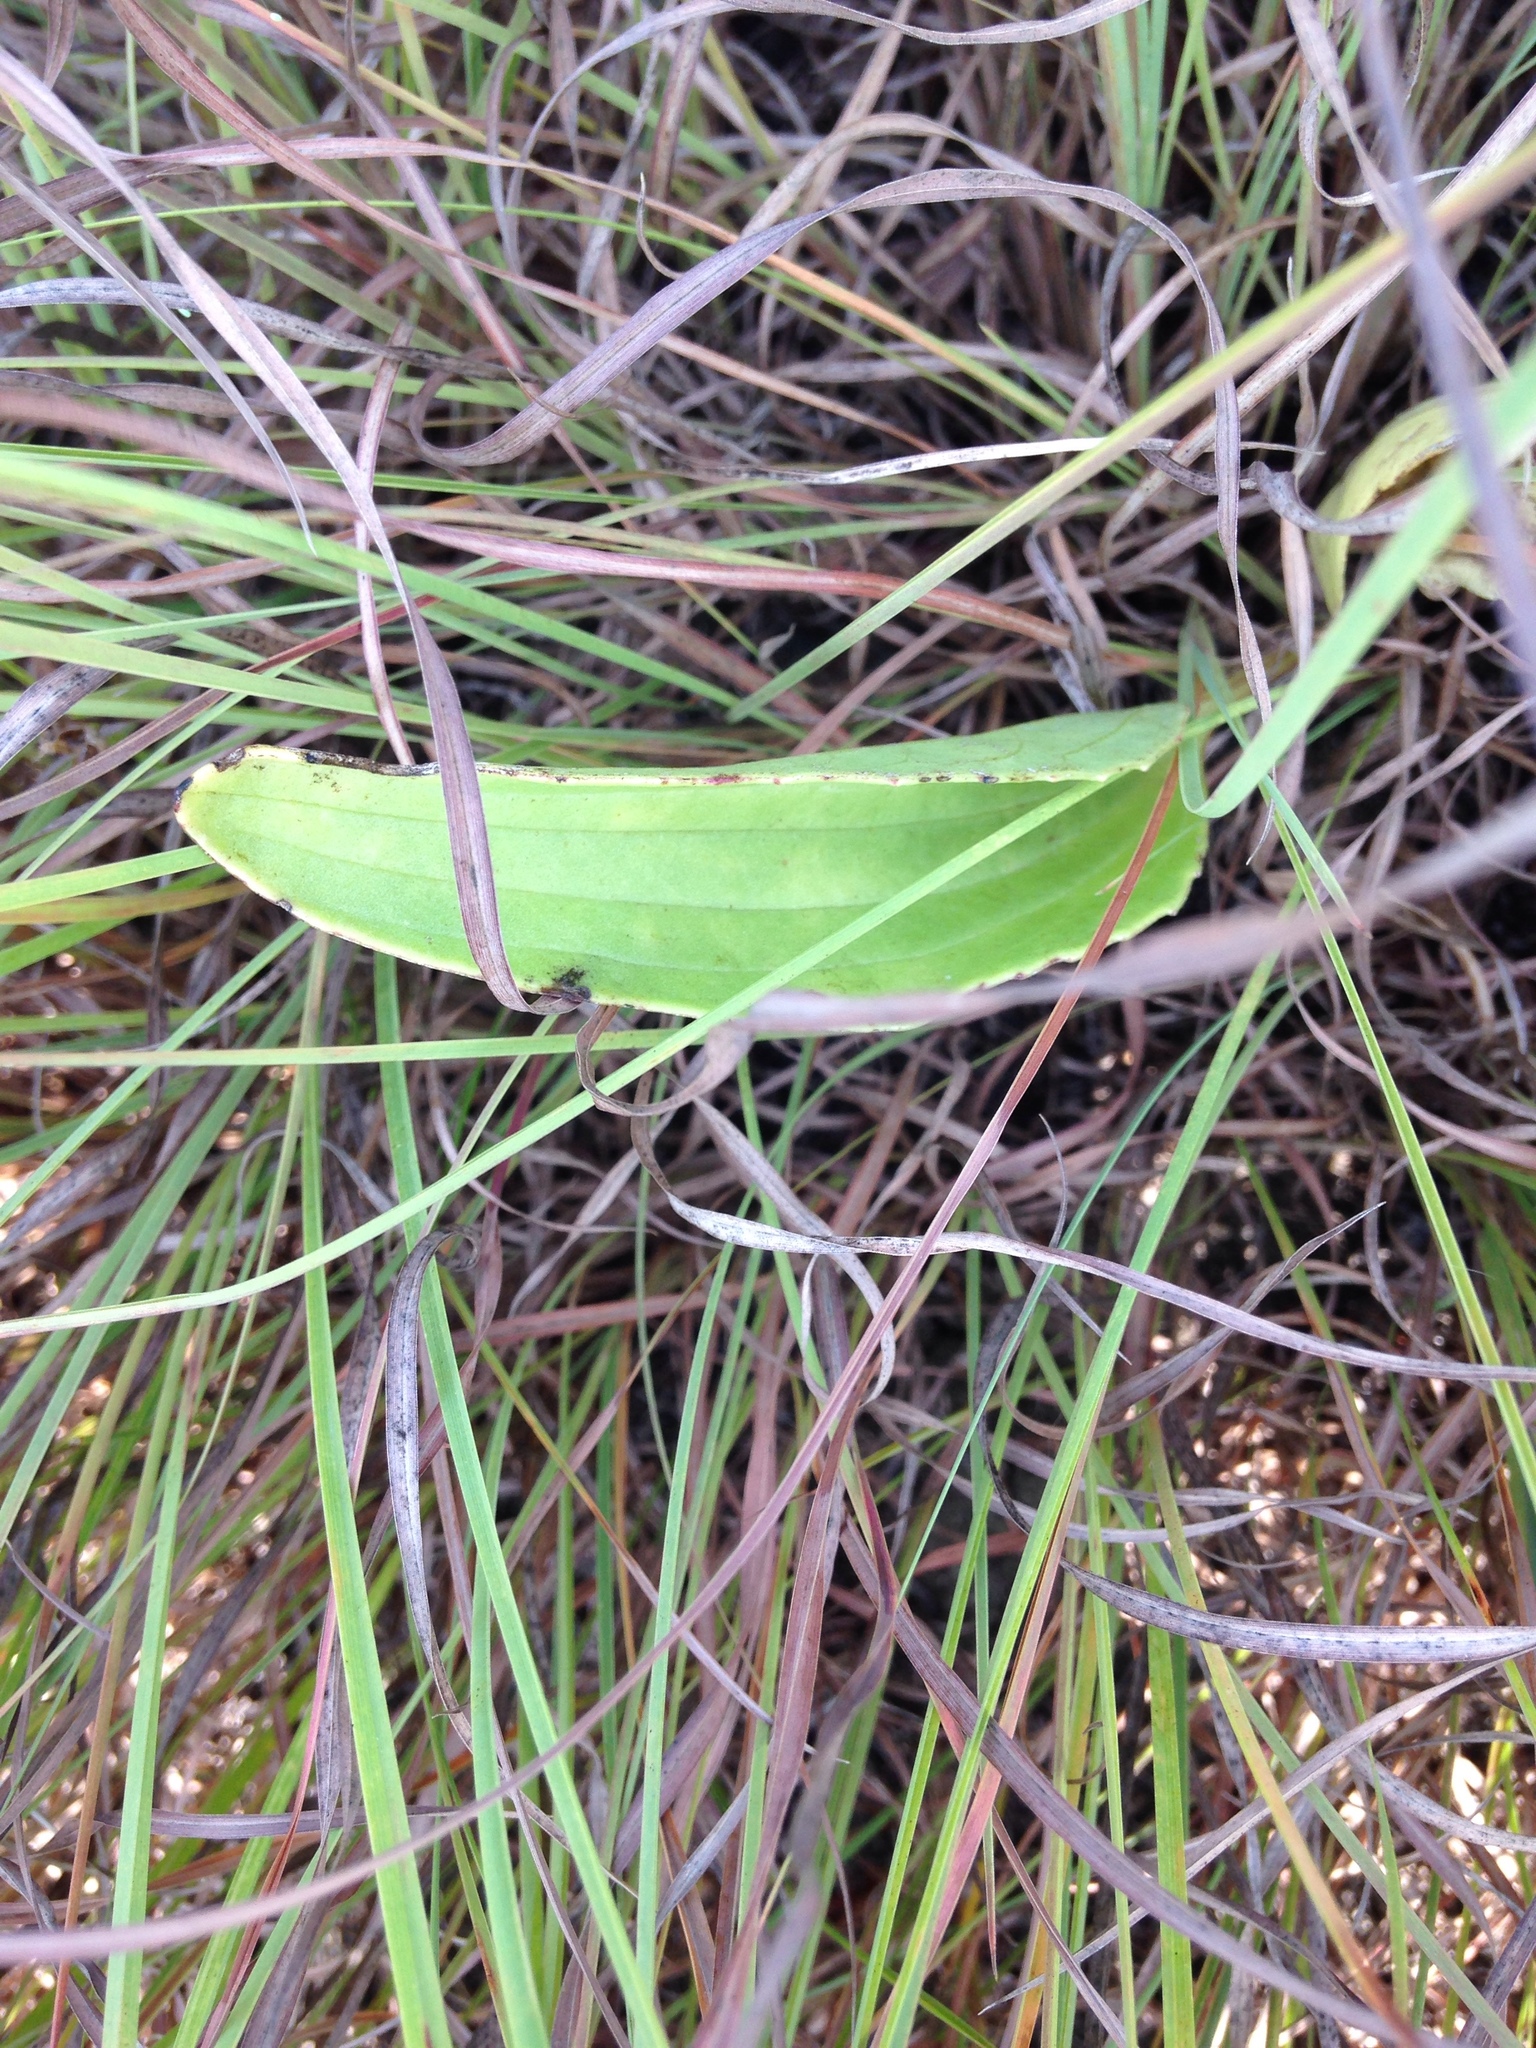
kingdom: Plantae
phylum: Tracheophyta
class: Magnoliopsida
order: Asterales
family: Asteraceae
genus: Arnoglossum
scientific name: Arnoglossum plantagineum
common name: Groove-stemmed indian-plantain
